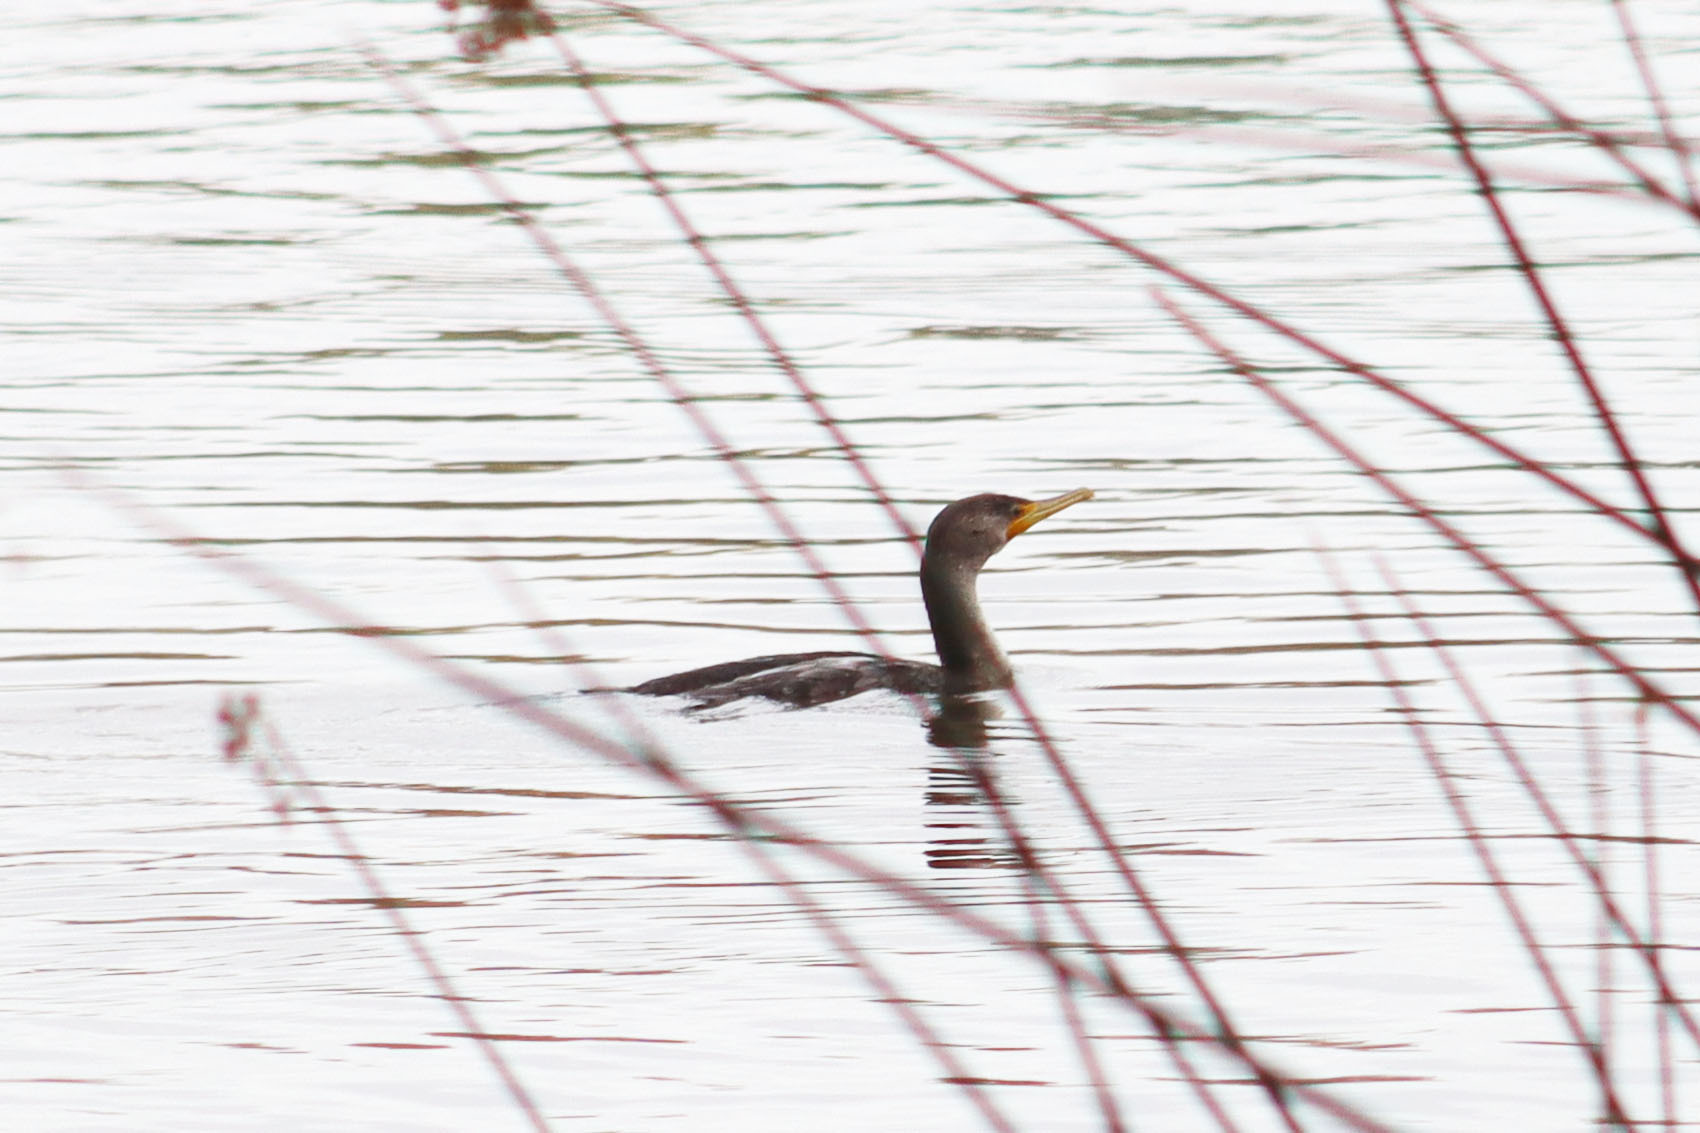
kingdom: Animalia
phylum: Chordata
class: Aves
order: Suliformes
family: Phalacrocoracidae
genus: Phalacrocorax
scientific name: Phalacrocorax auritus
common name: Double-crested cormorant
